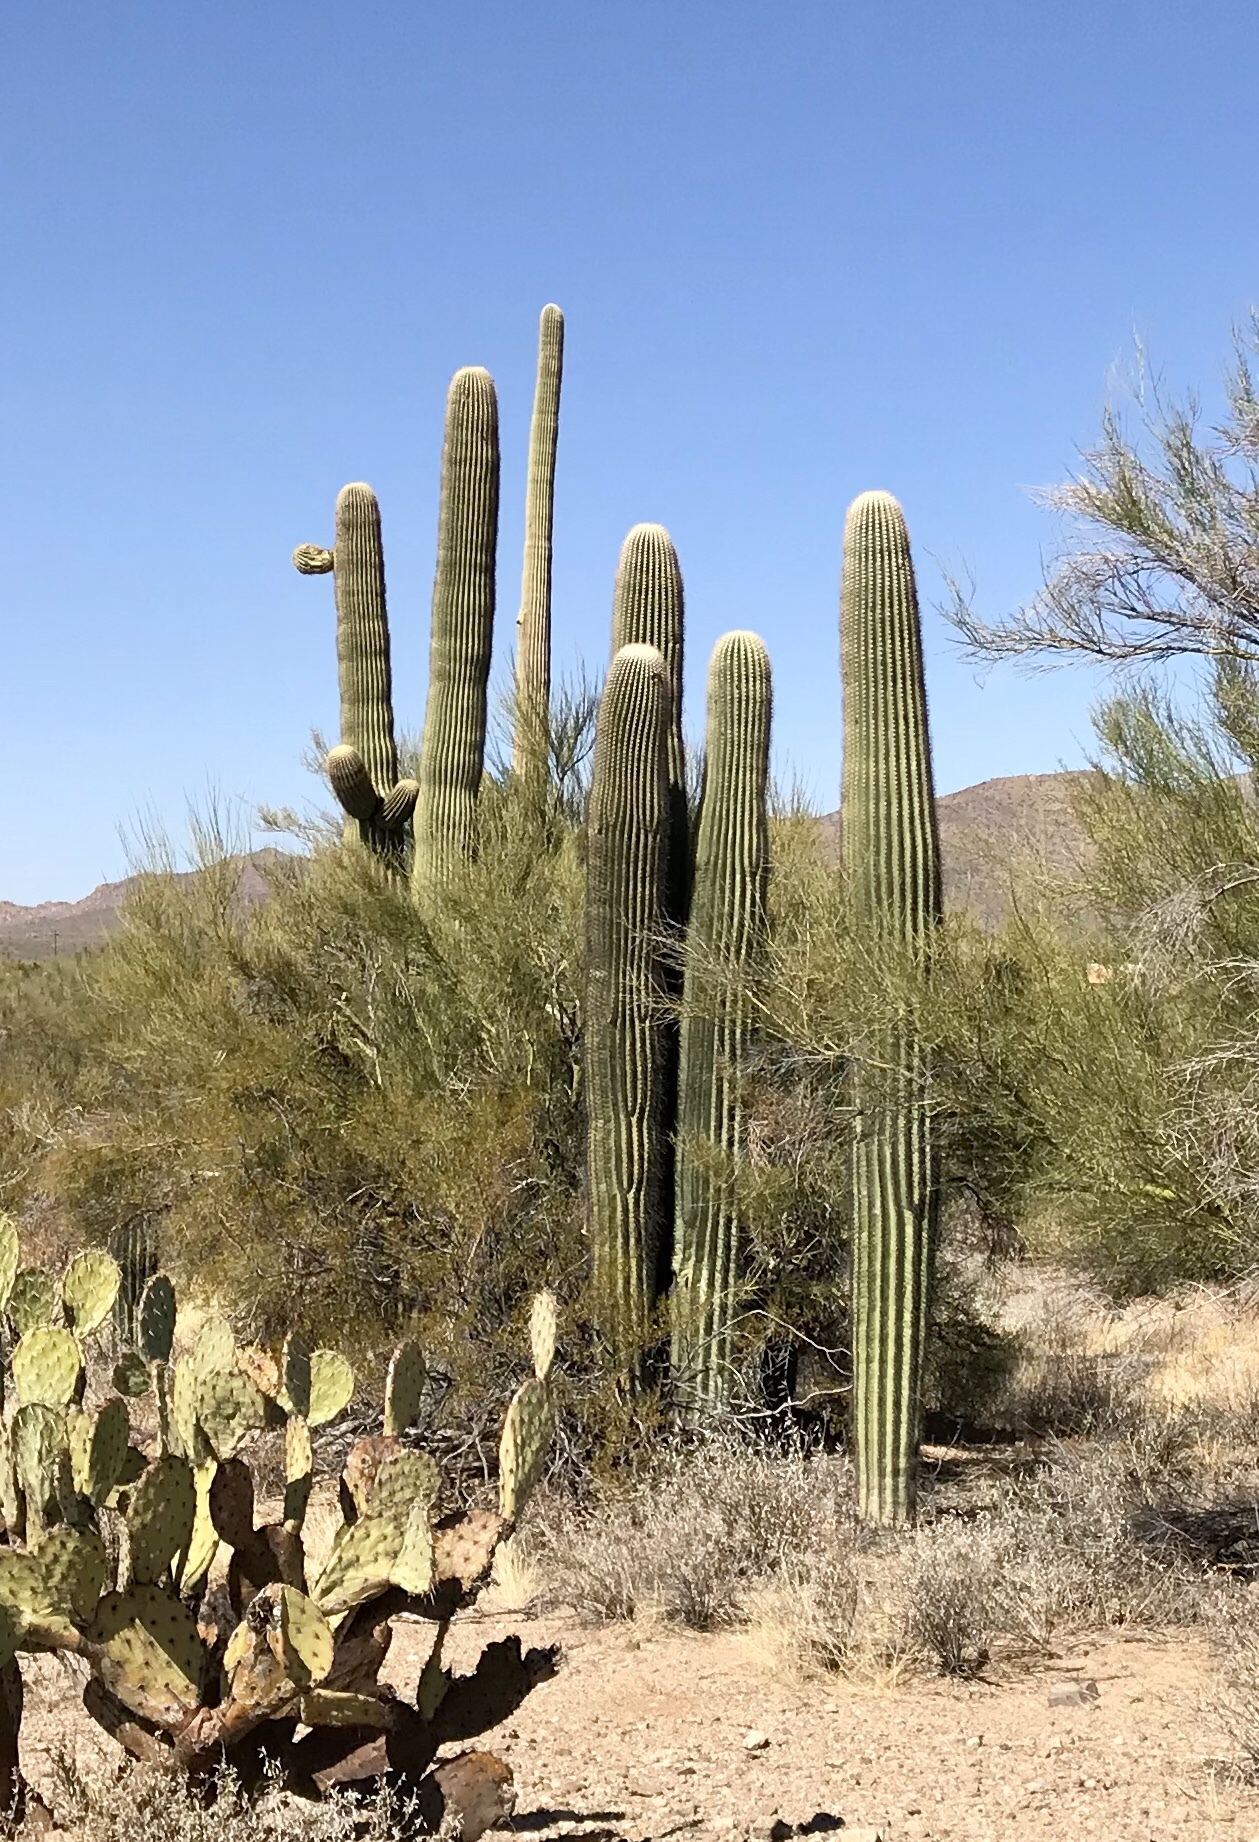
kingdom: Plantae
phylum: Tracheophyta
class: Magnoliopsida
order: Caryophyllales
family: Cactaceae
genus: Carnegiea
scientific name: Carnegiea gigantea
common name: Saguaro
